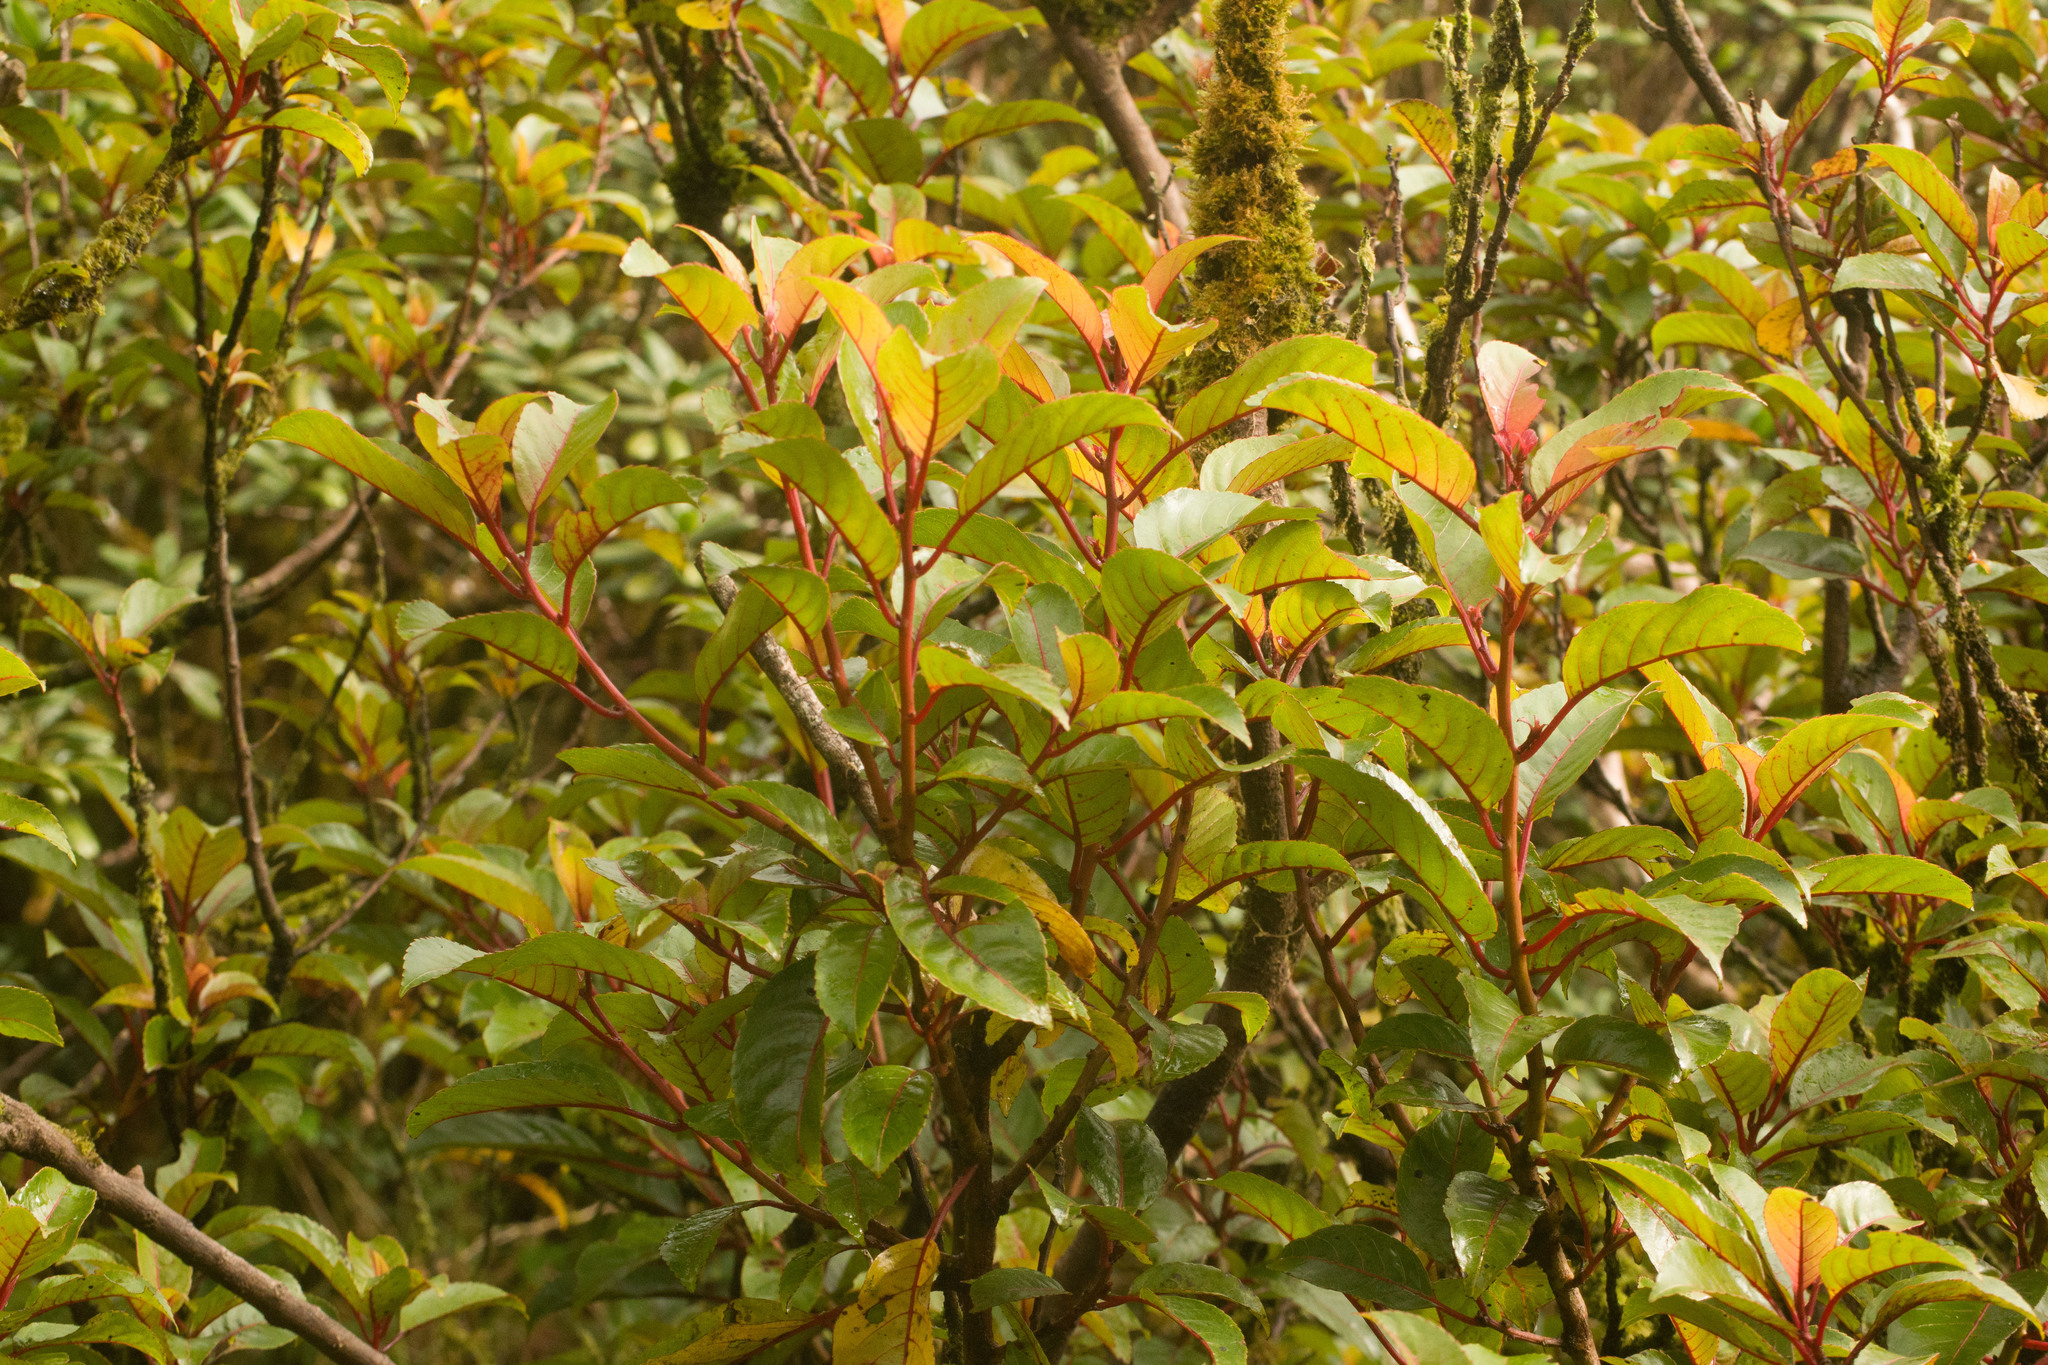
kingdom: Plantae
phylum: Tracheophyta
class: Magnoliopsida
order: Huerteales
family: Dipentodontaceae
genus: Perrottetia
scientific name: Perrottetia sandwicensis
